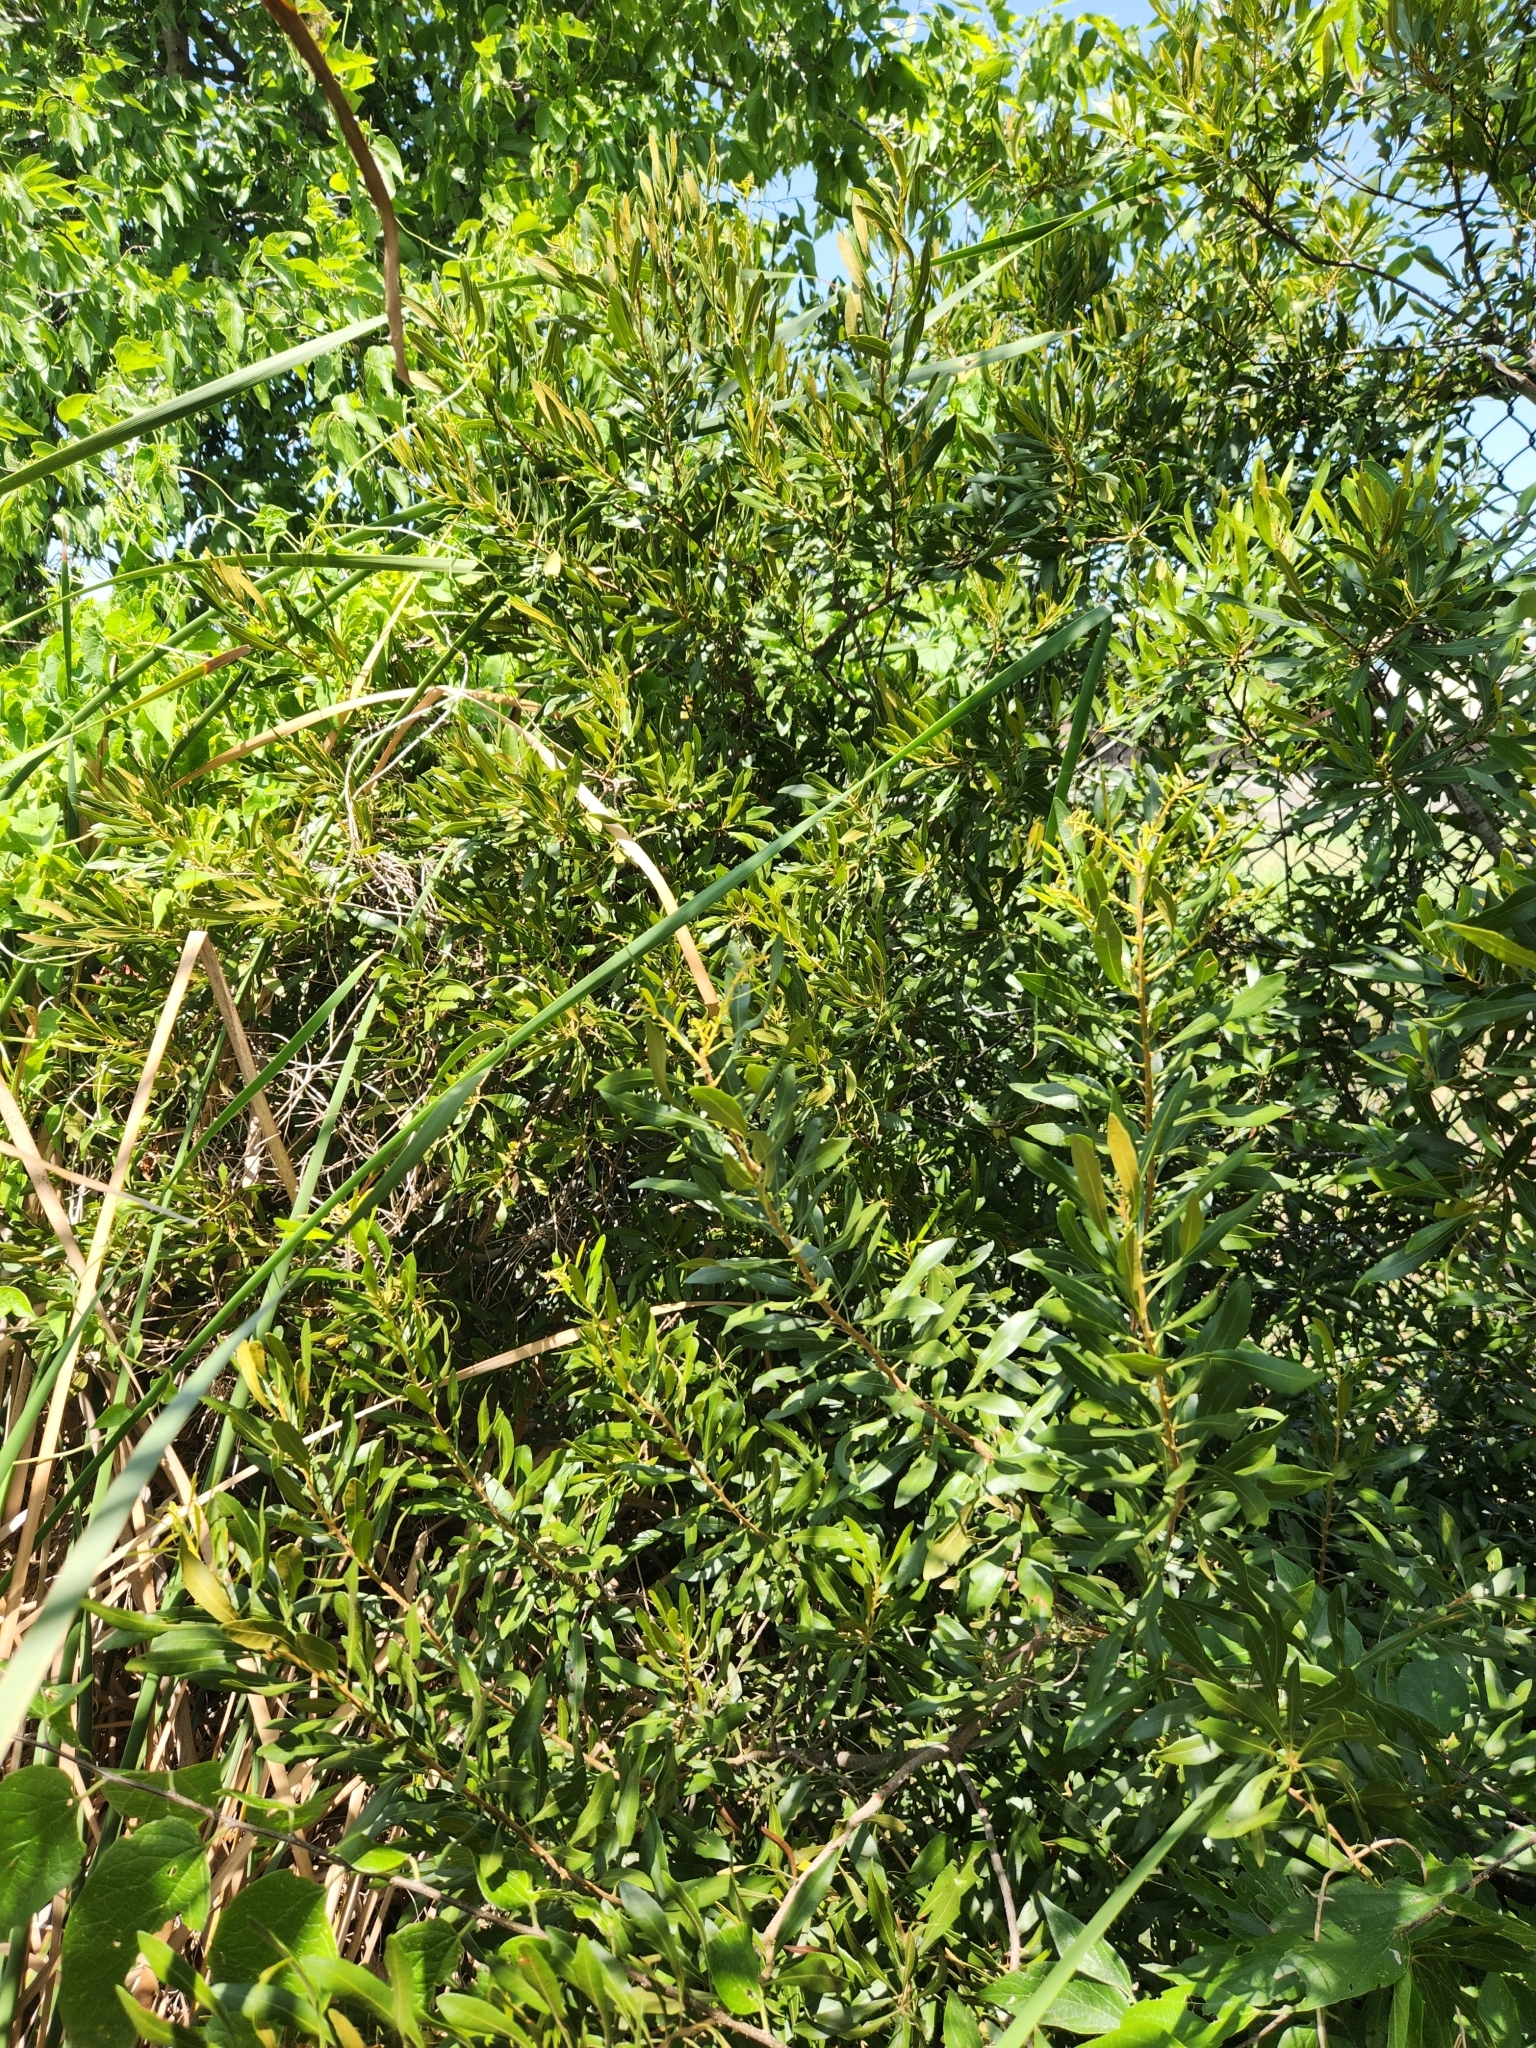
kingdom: Plantae
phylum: Tracheophyta
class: Magnoliopsida
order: Fagales
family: Myricaceae
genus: Morella
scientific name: Morella cerifera
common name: Wax myrtle
